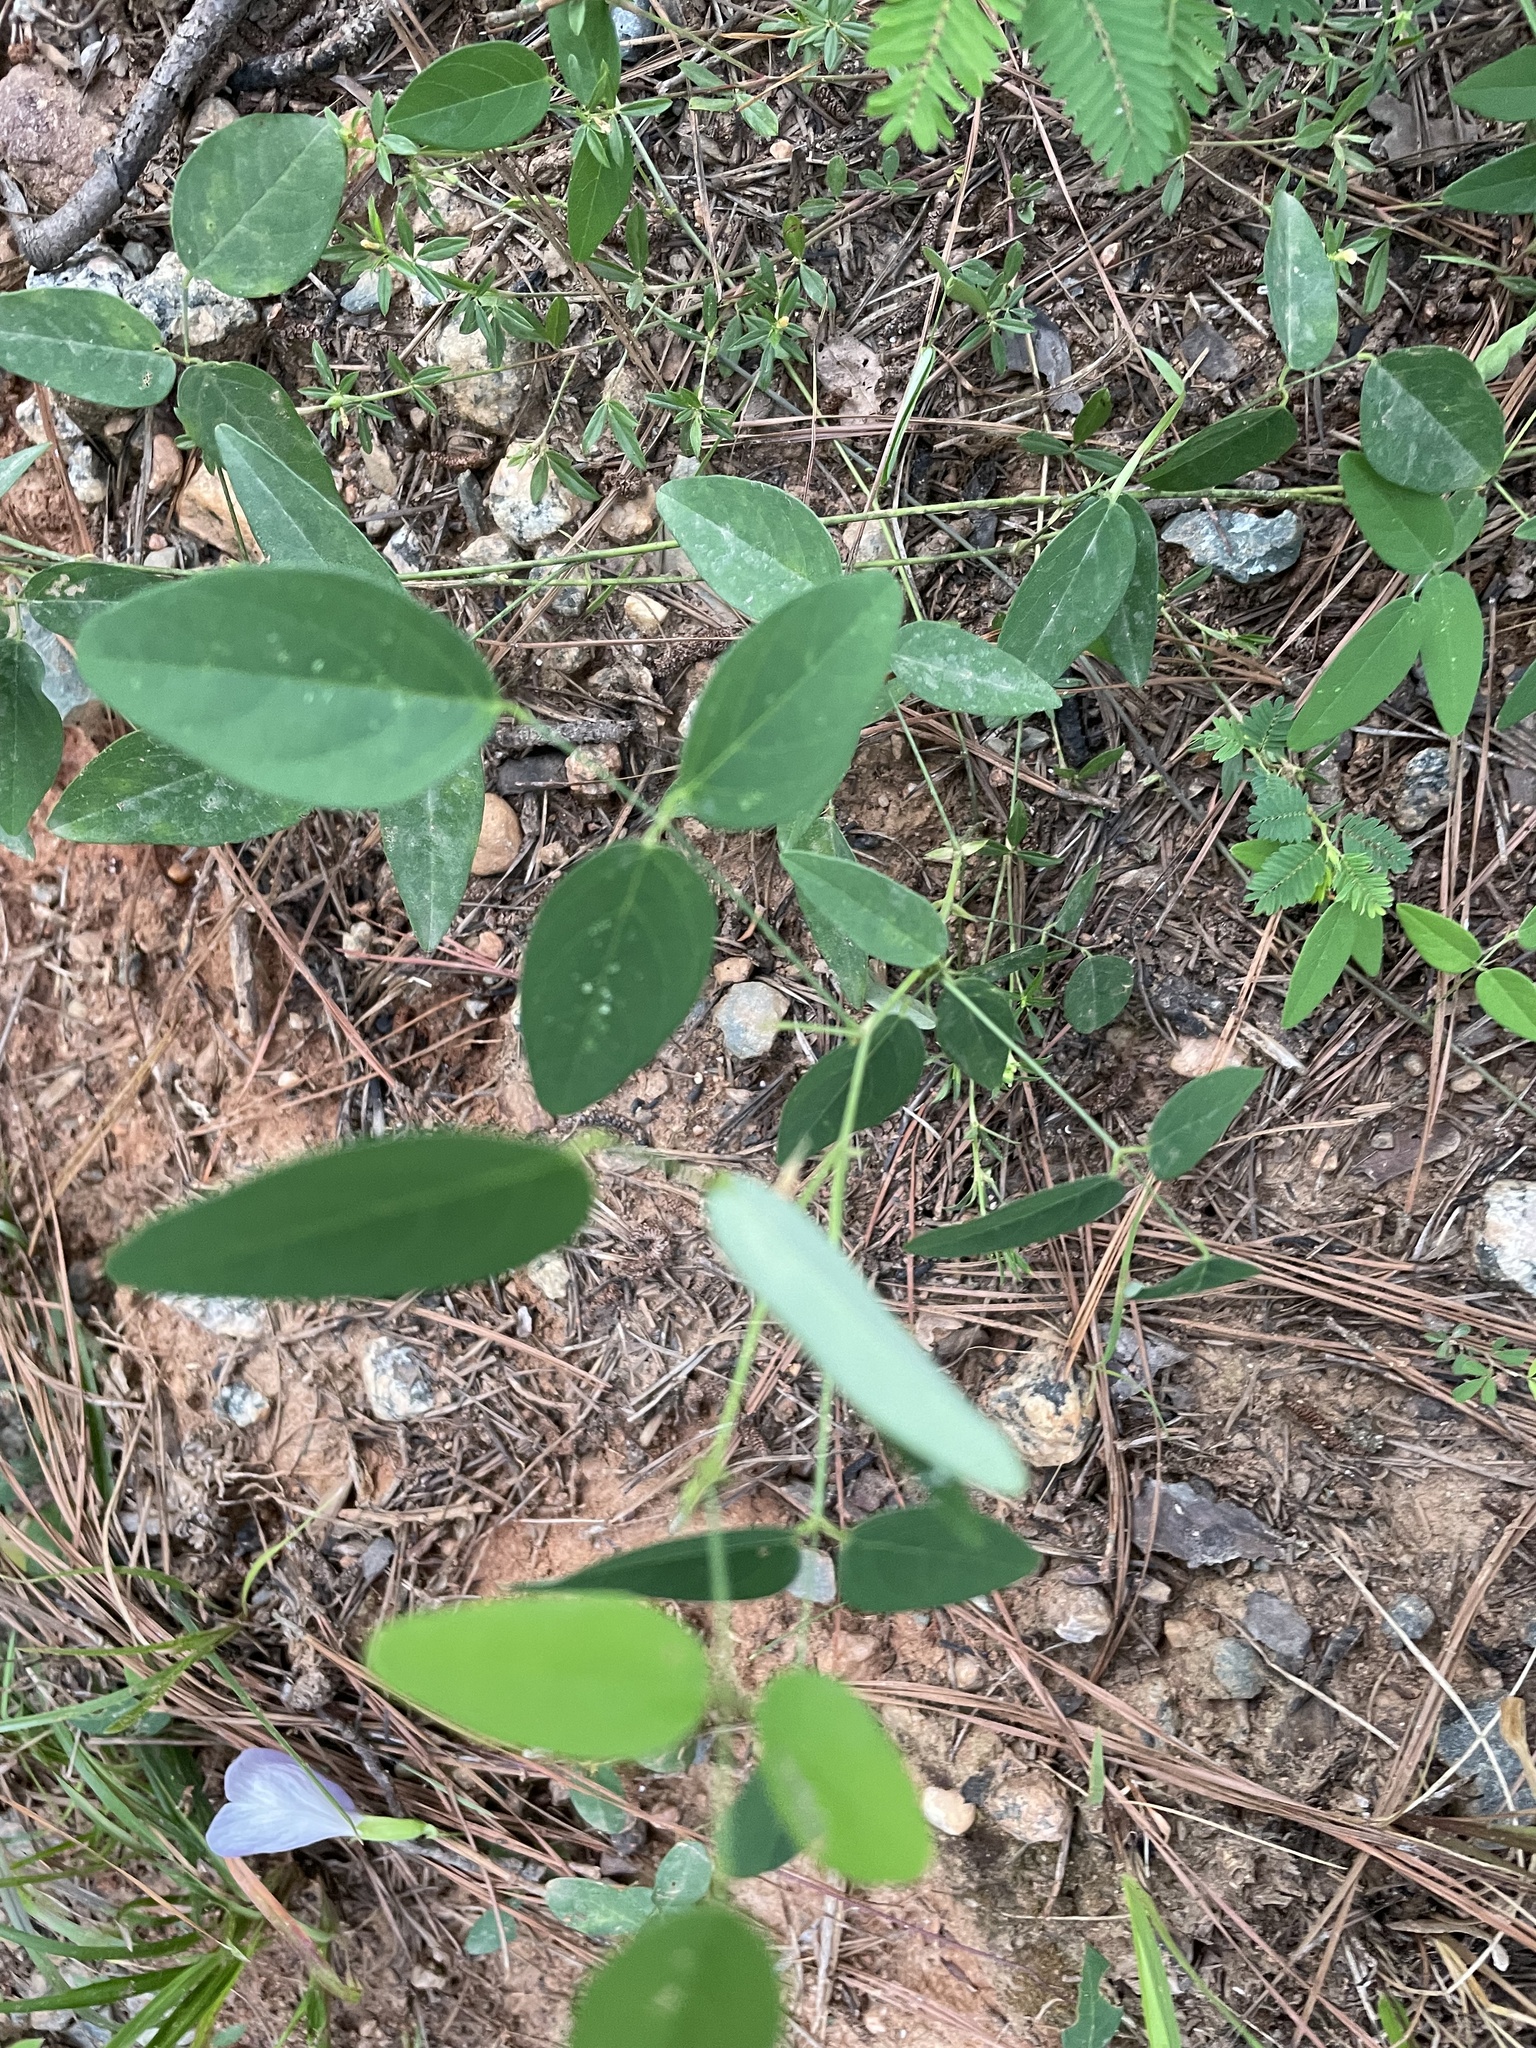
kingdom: Plantae
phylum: Tracheophyta
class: Magnoliopsida
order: Fabales
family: Fabaceae
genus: Clitoria
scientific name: Clitoria mariana
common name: Butterfly-pea
